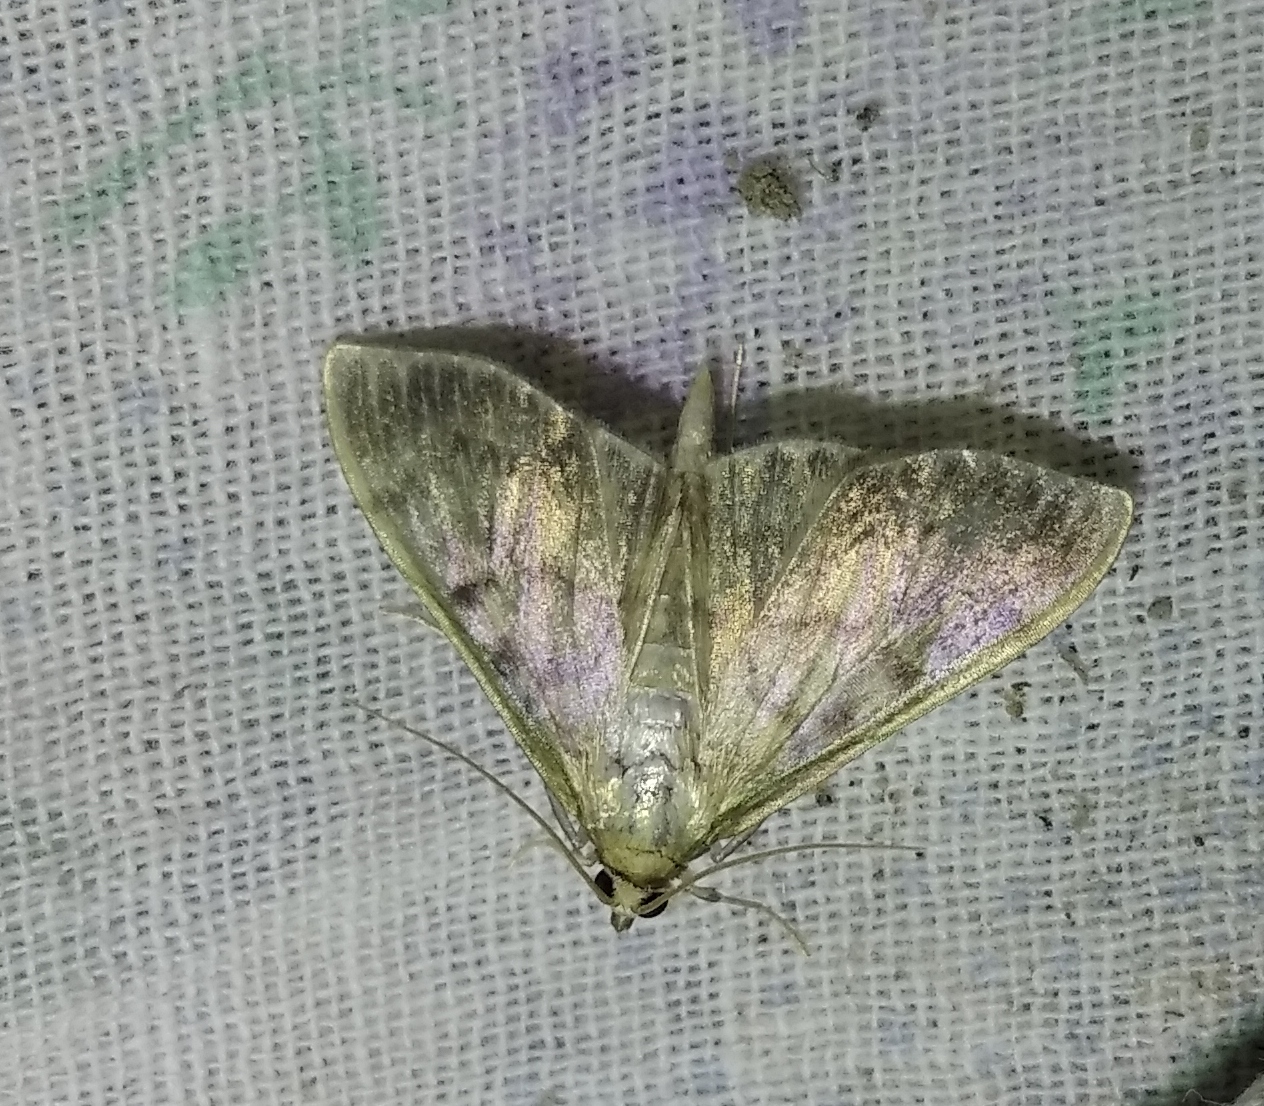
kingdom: Animalia
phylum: Arthropoda
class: Insecta
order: Lepidoptera
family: Crambidae
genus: Patania
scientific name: Patania ruralis
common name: Mother of pearl
